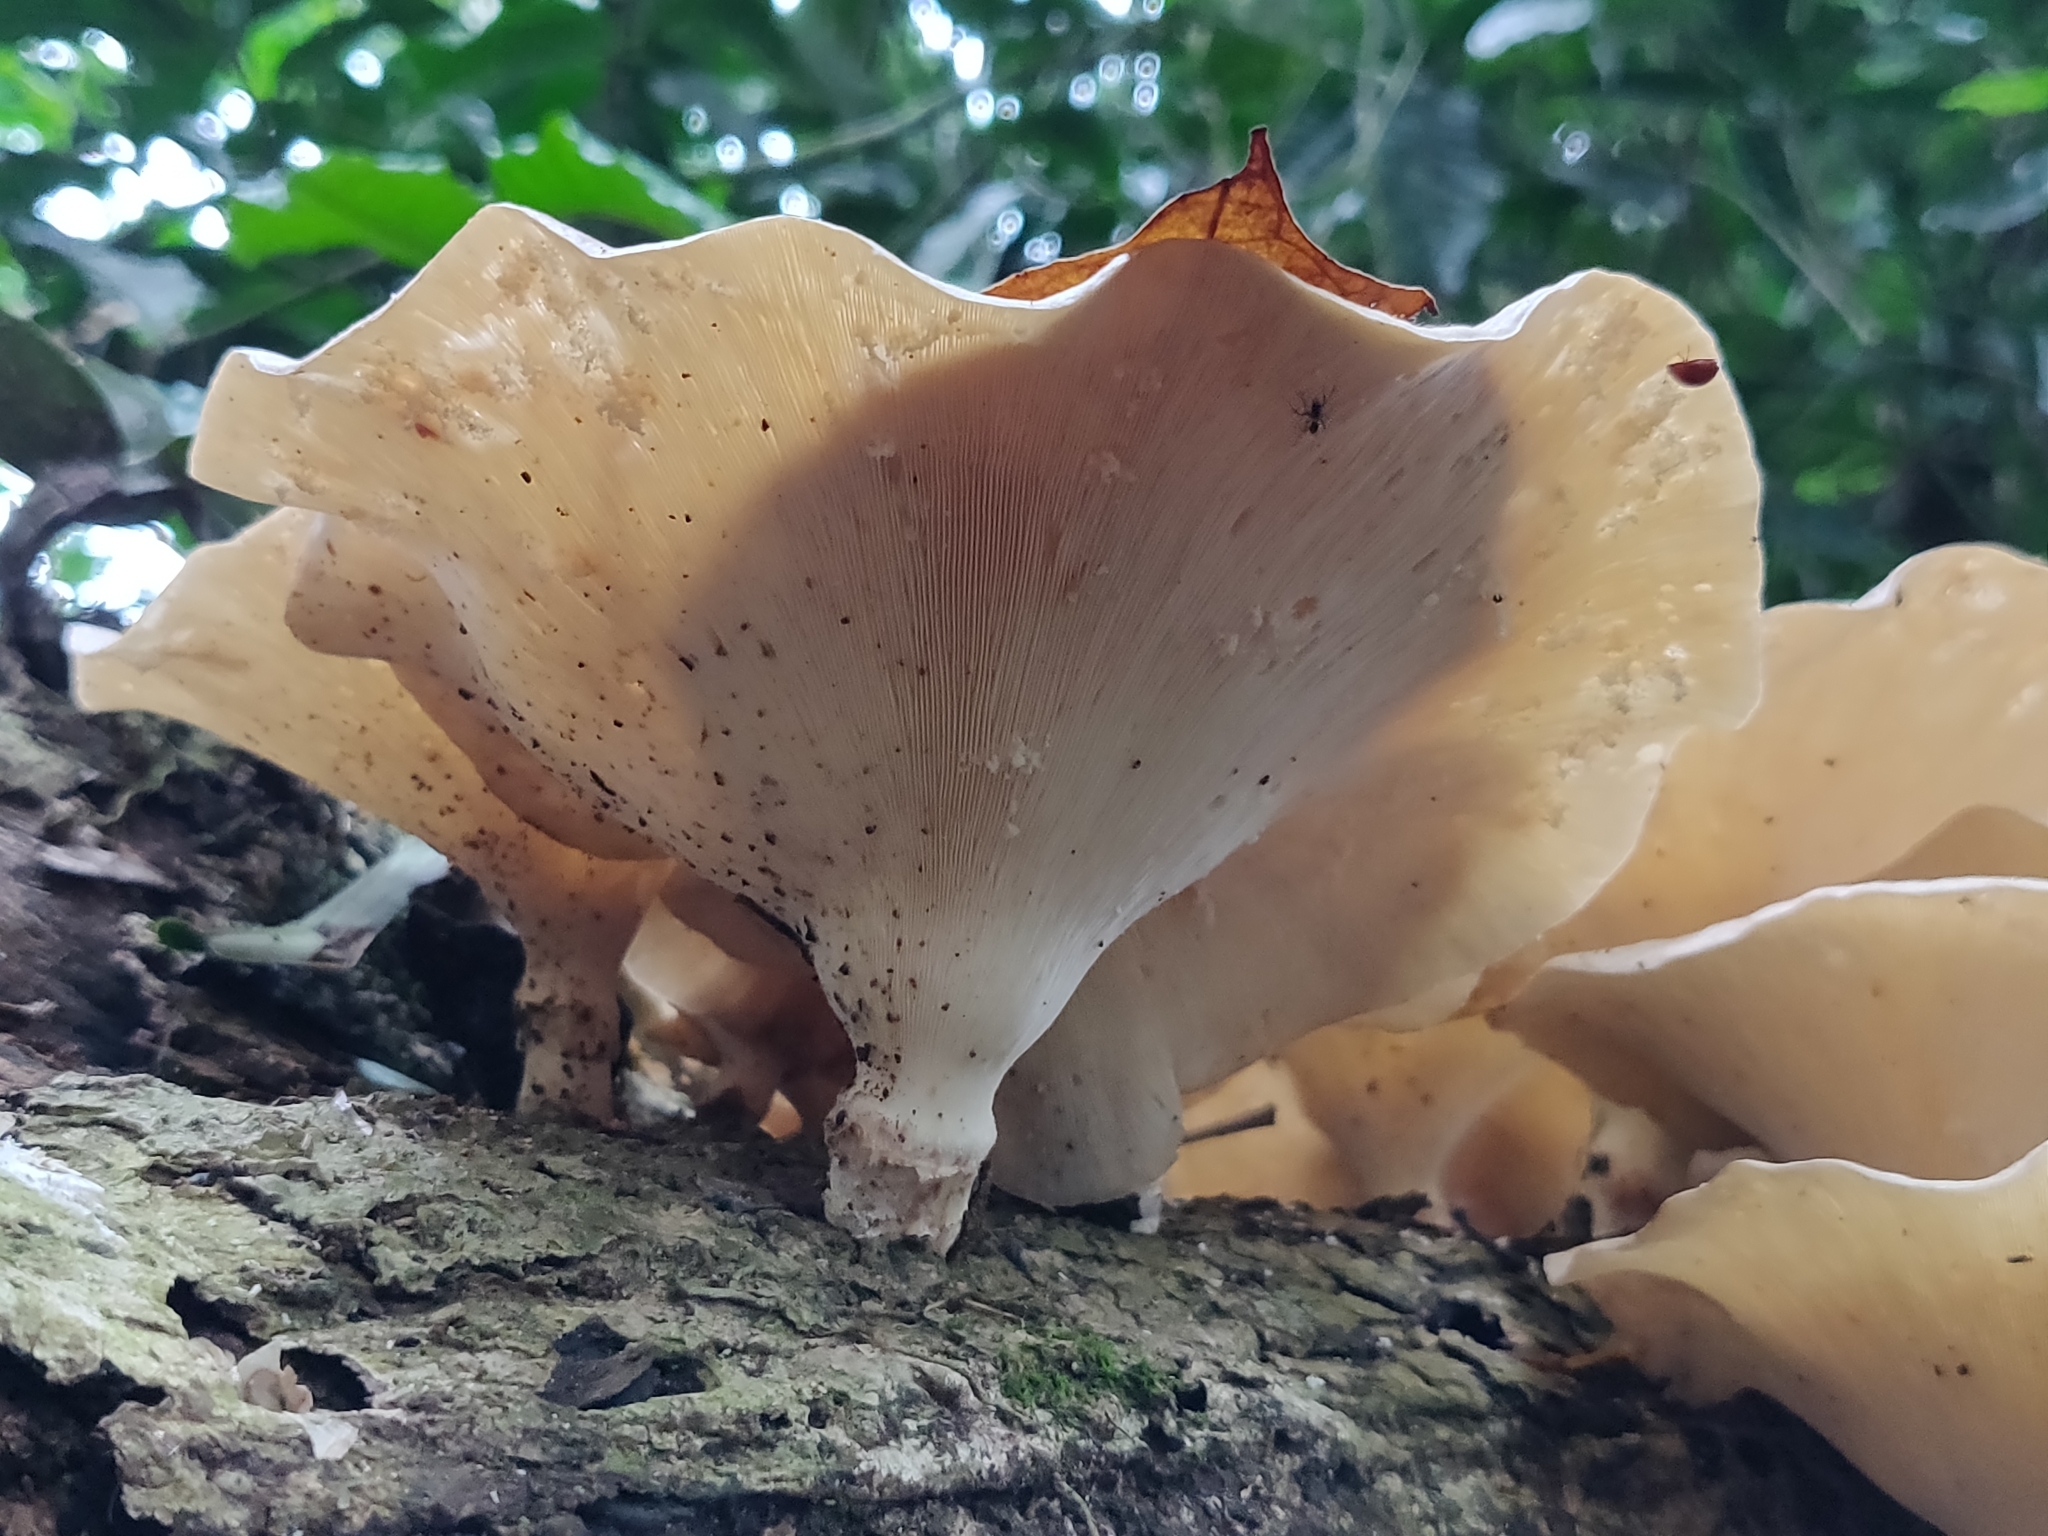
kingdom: Fungi
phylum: Basidiomycota
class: Agaricomycetes
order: Polyporales
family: Polyporaceae
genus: Lentinus
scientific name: Lentinus sajor-caju
